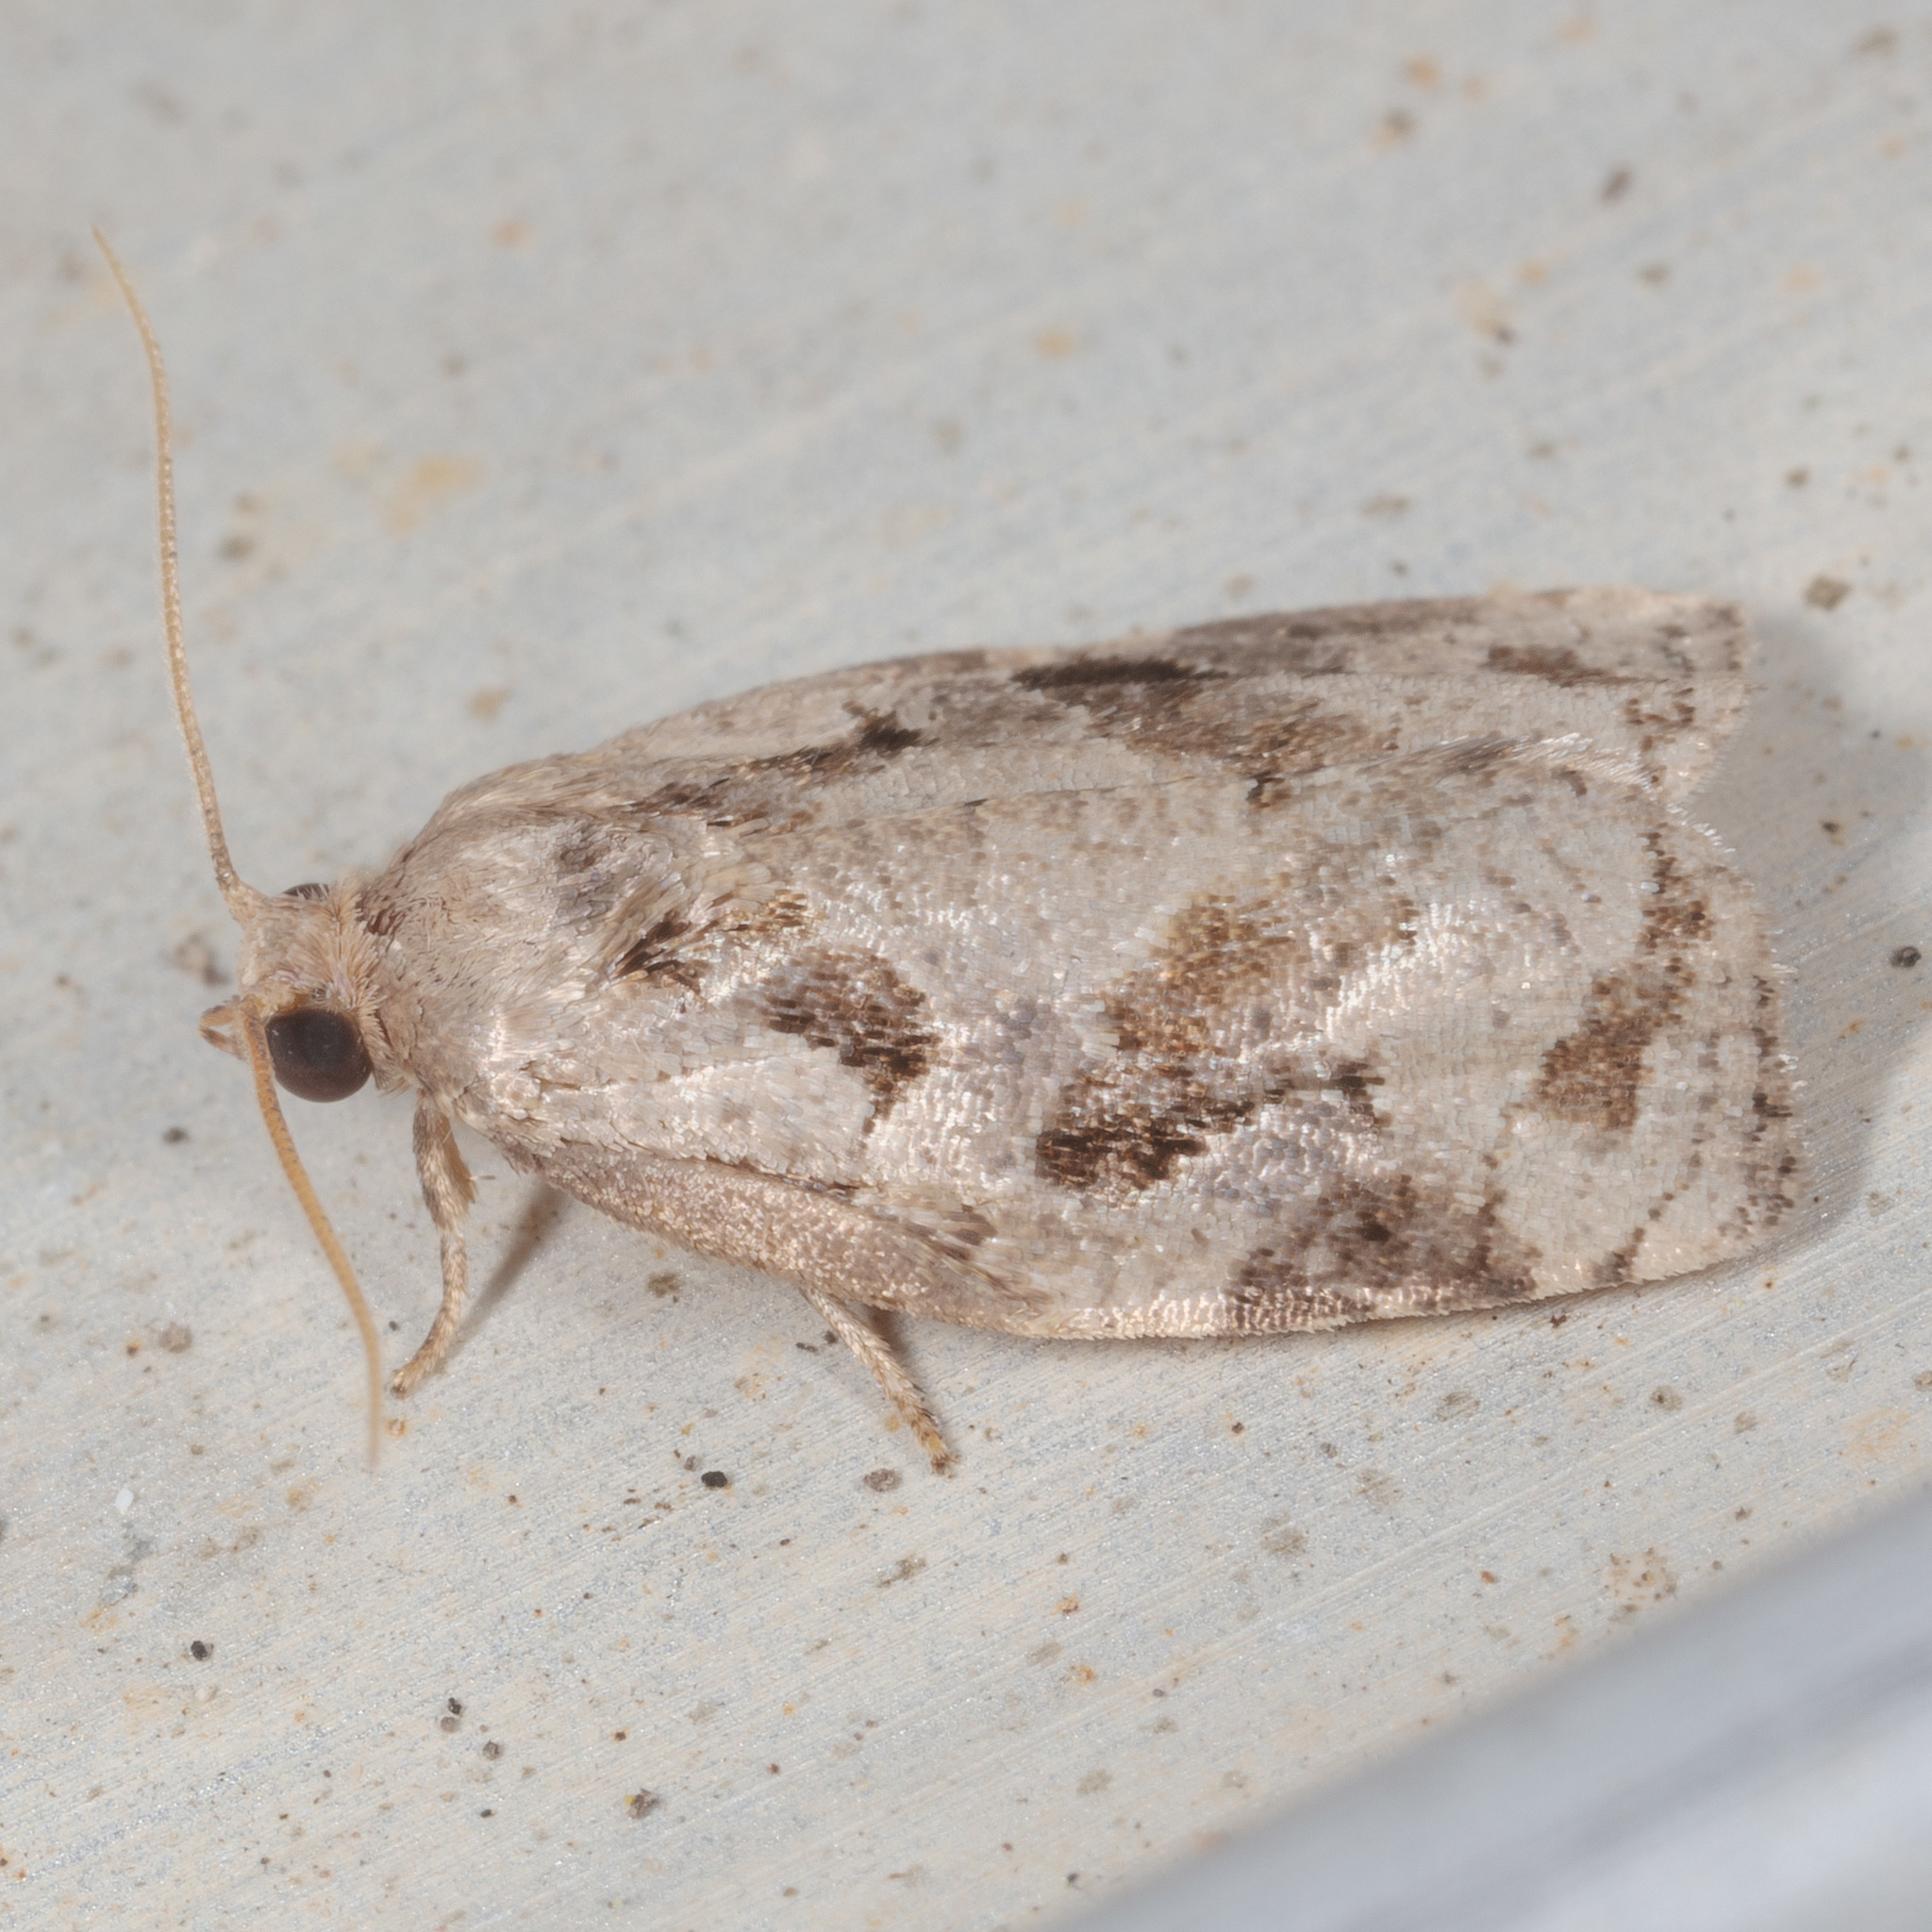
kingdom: Animalia
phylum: Arthropoda
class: Insecta
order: Lepidoptera
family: Tortricidae
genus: Archips
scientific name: Archips grisea
